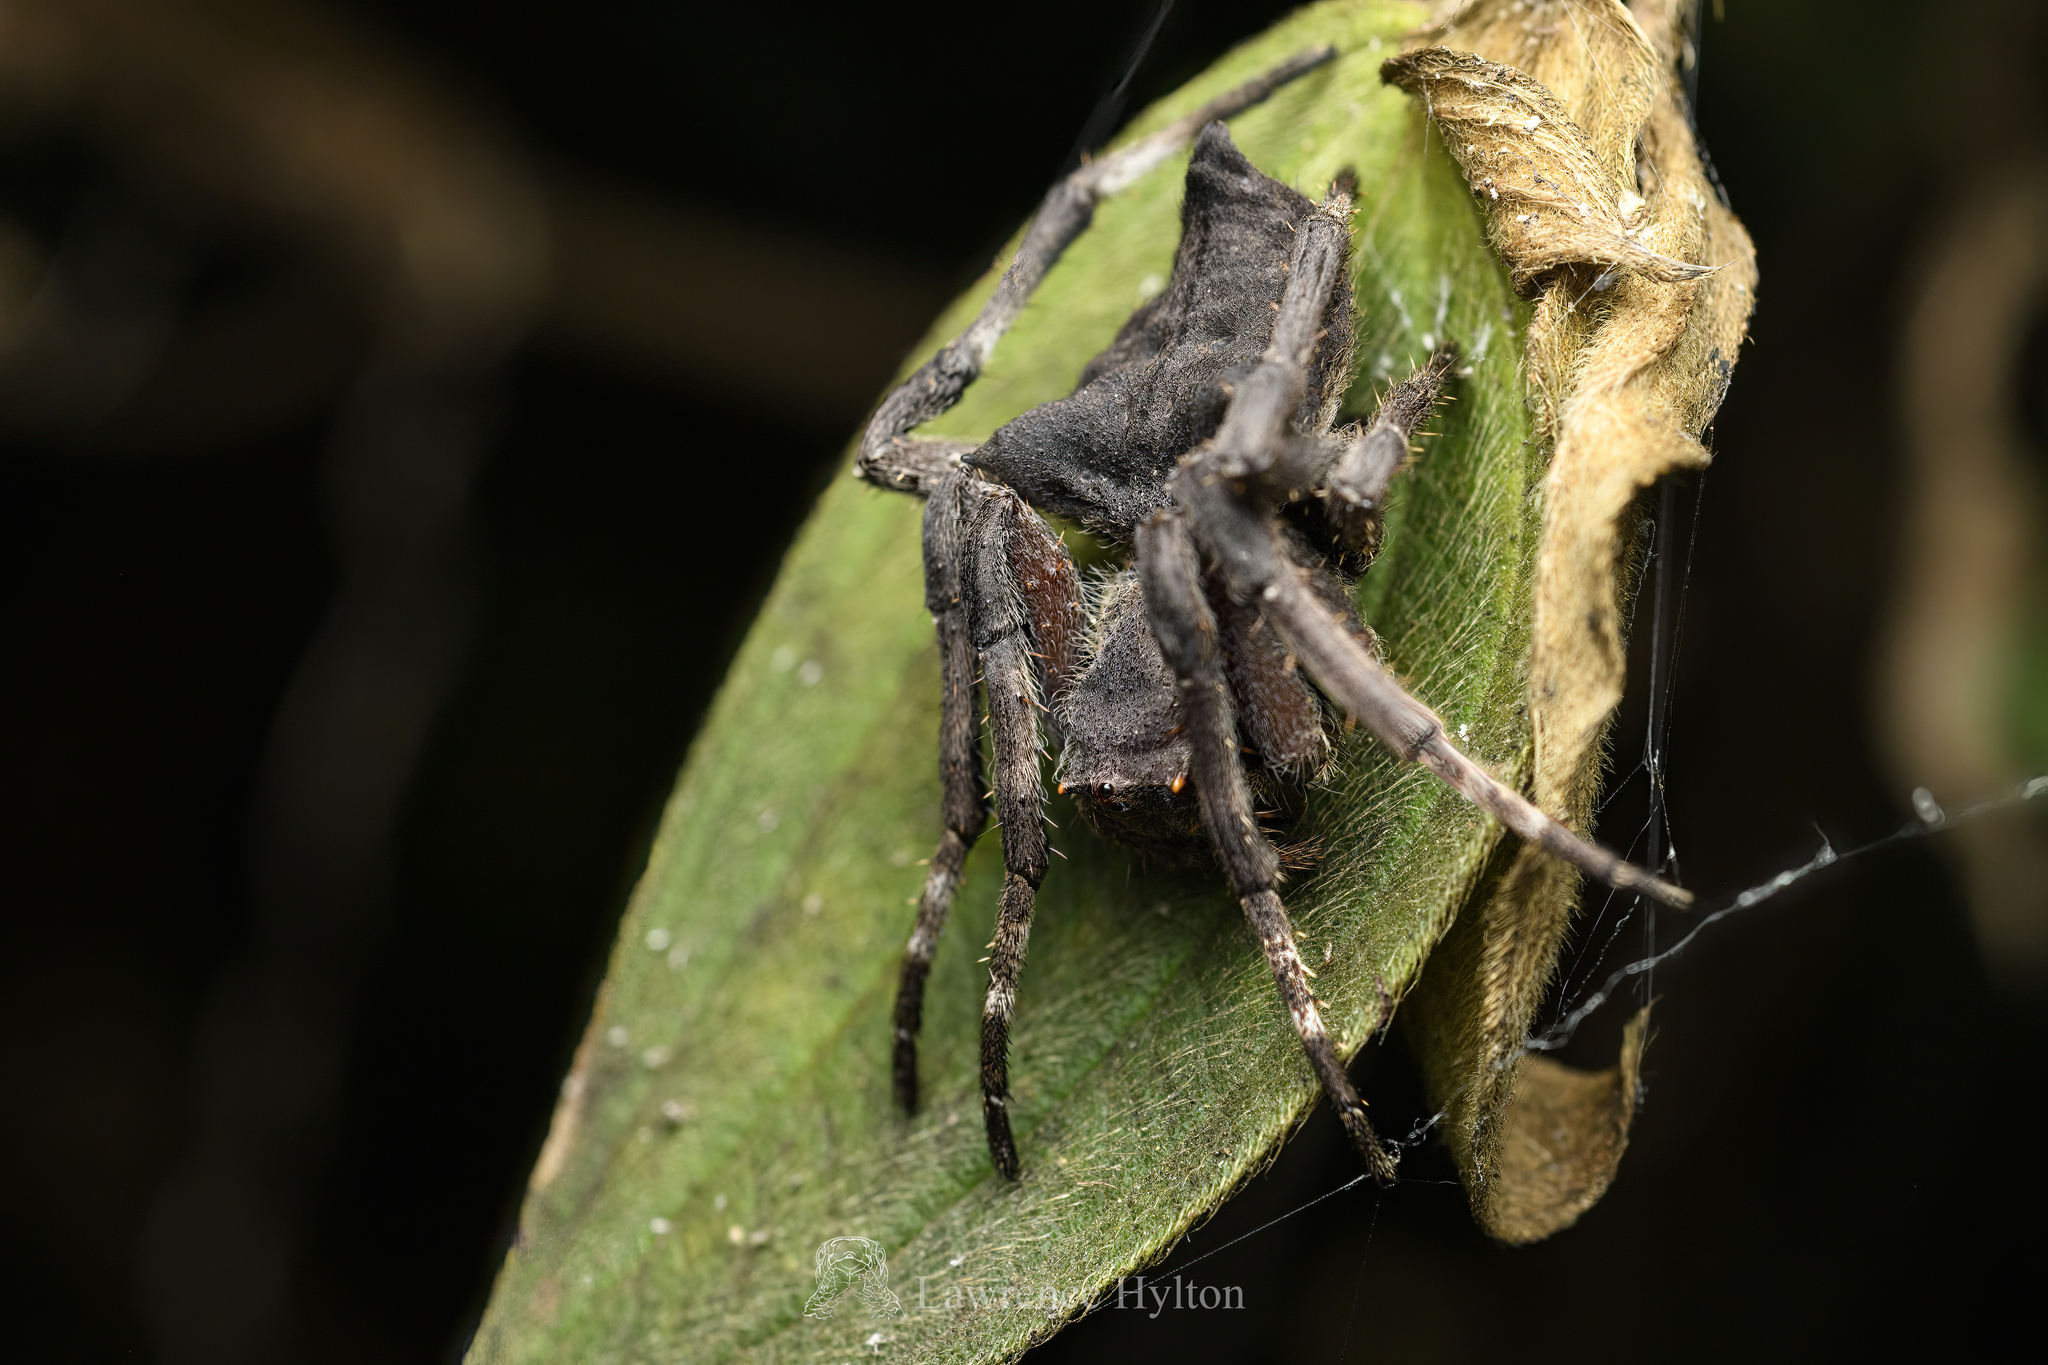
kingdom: Animalia
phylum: Arthropoda
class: Arachnida
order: Araneae
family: Araneidae
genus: Parawixia
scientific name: Parawixia dehaani
